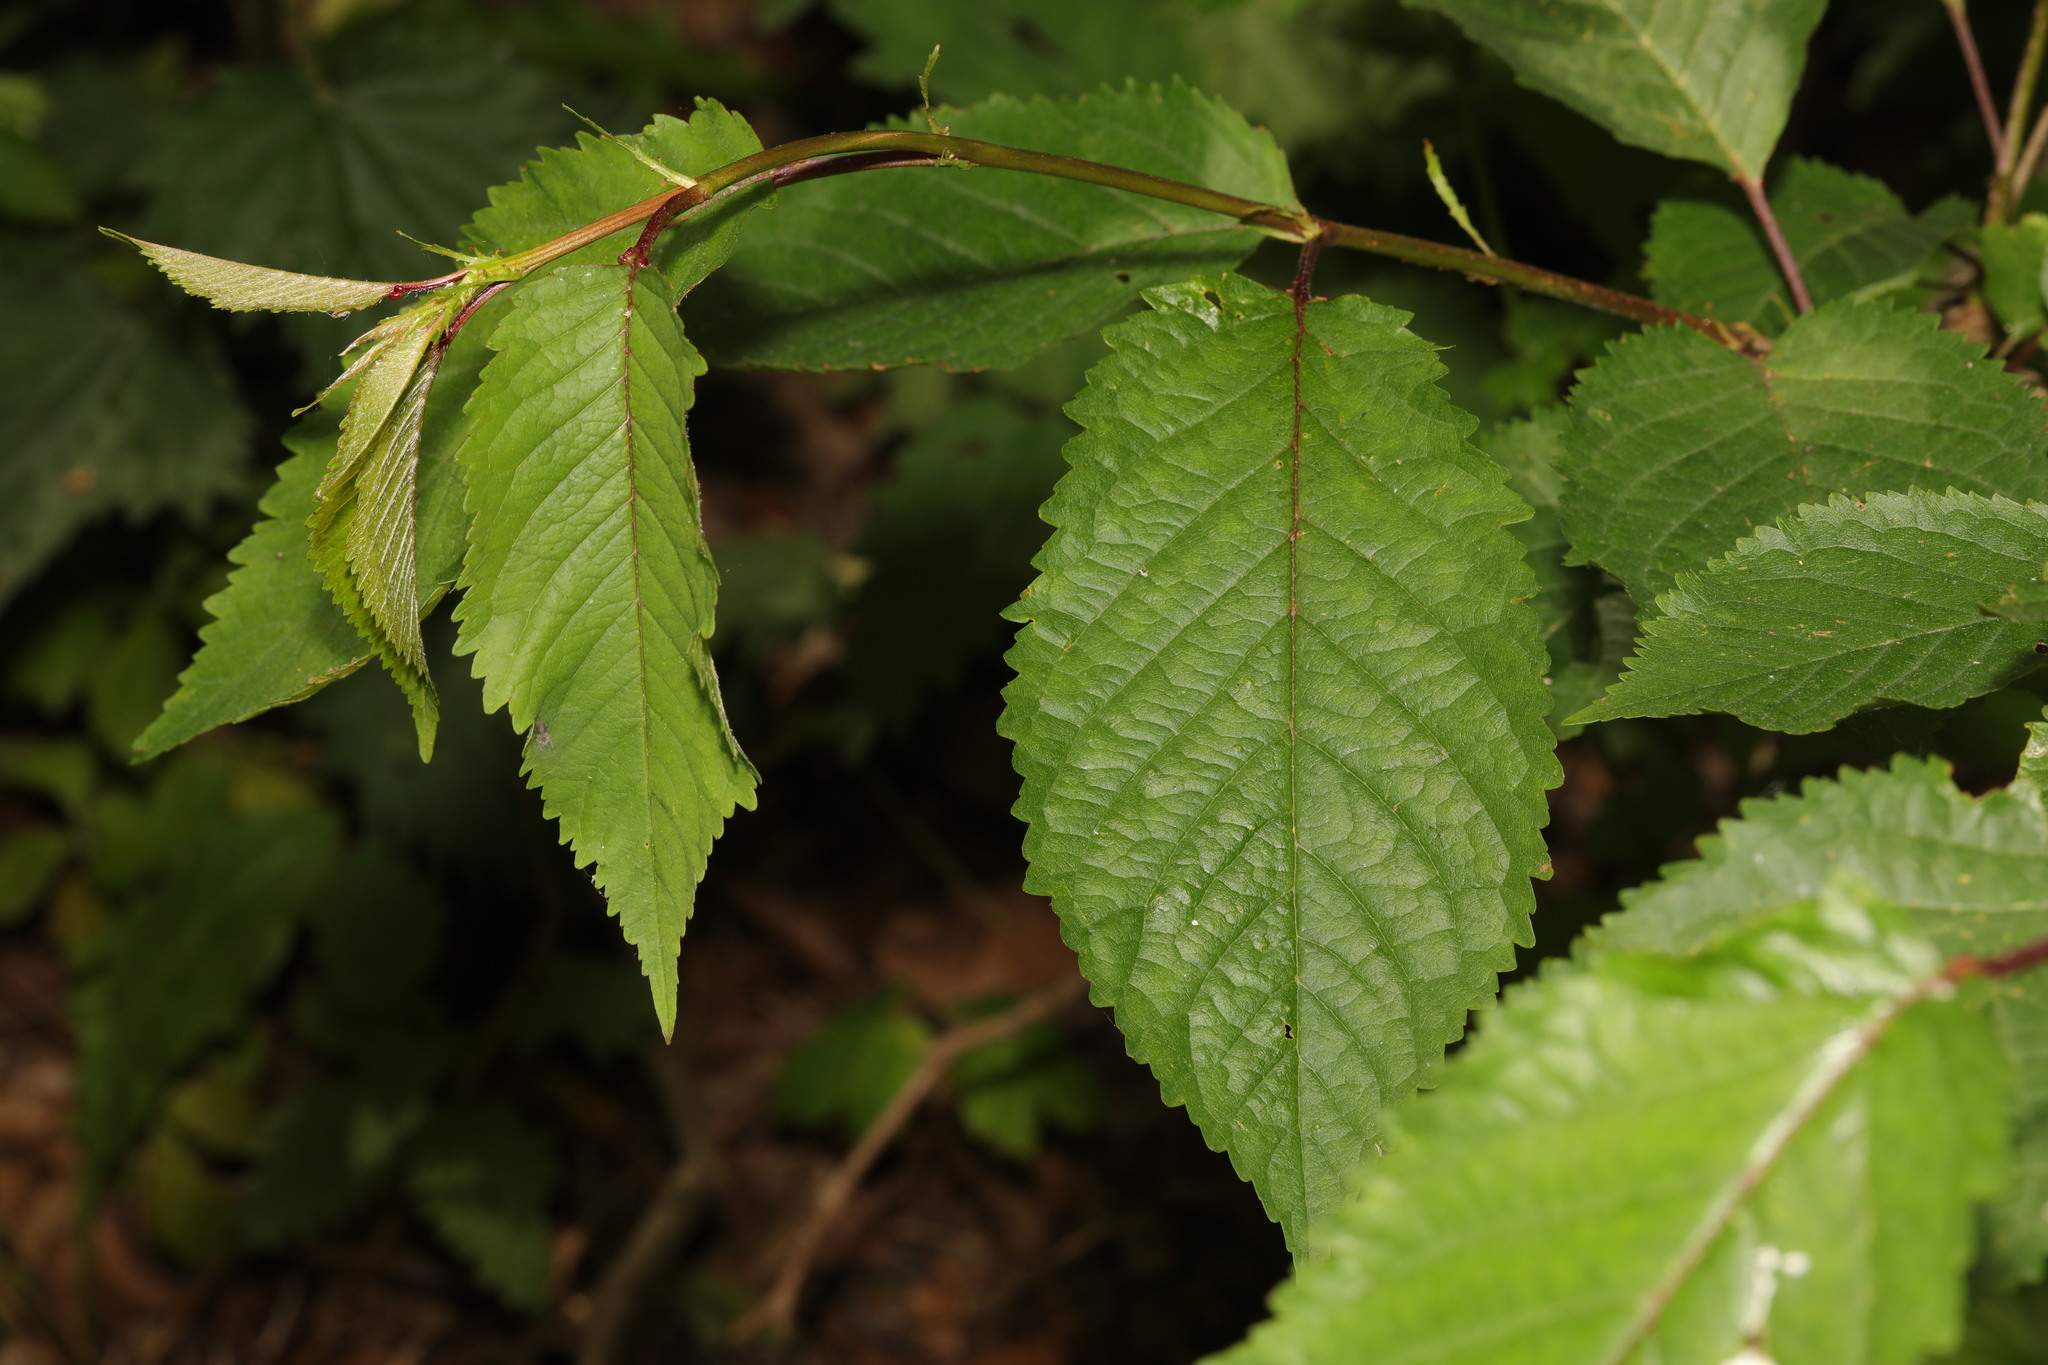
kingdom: Plantae
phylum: Tracheophyta
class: Magnoliopsida
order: Rosales
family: Rosaceae
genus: Prunus
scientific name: Prunus avium
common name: Sweet cherry
